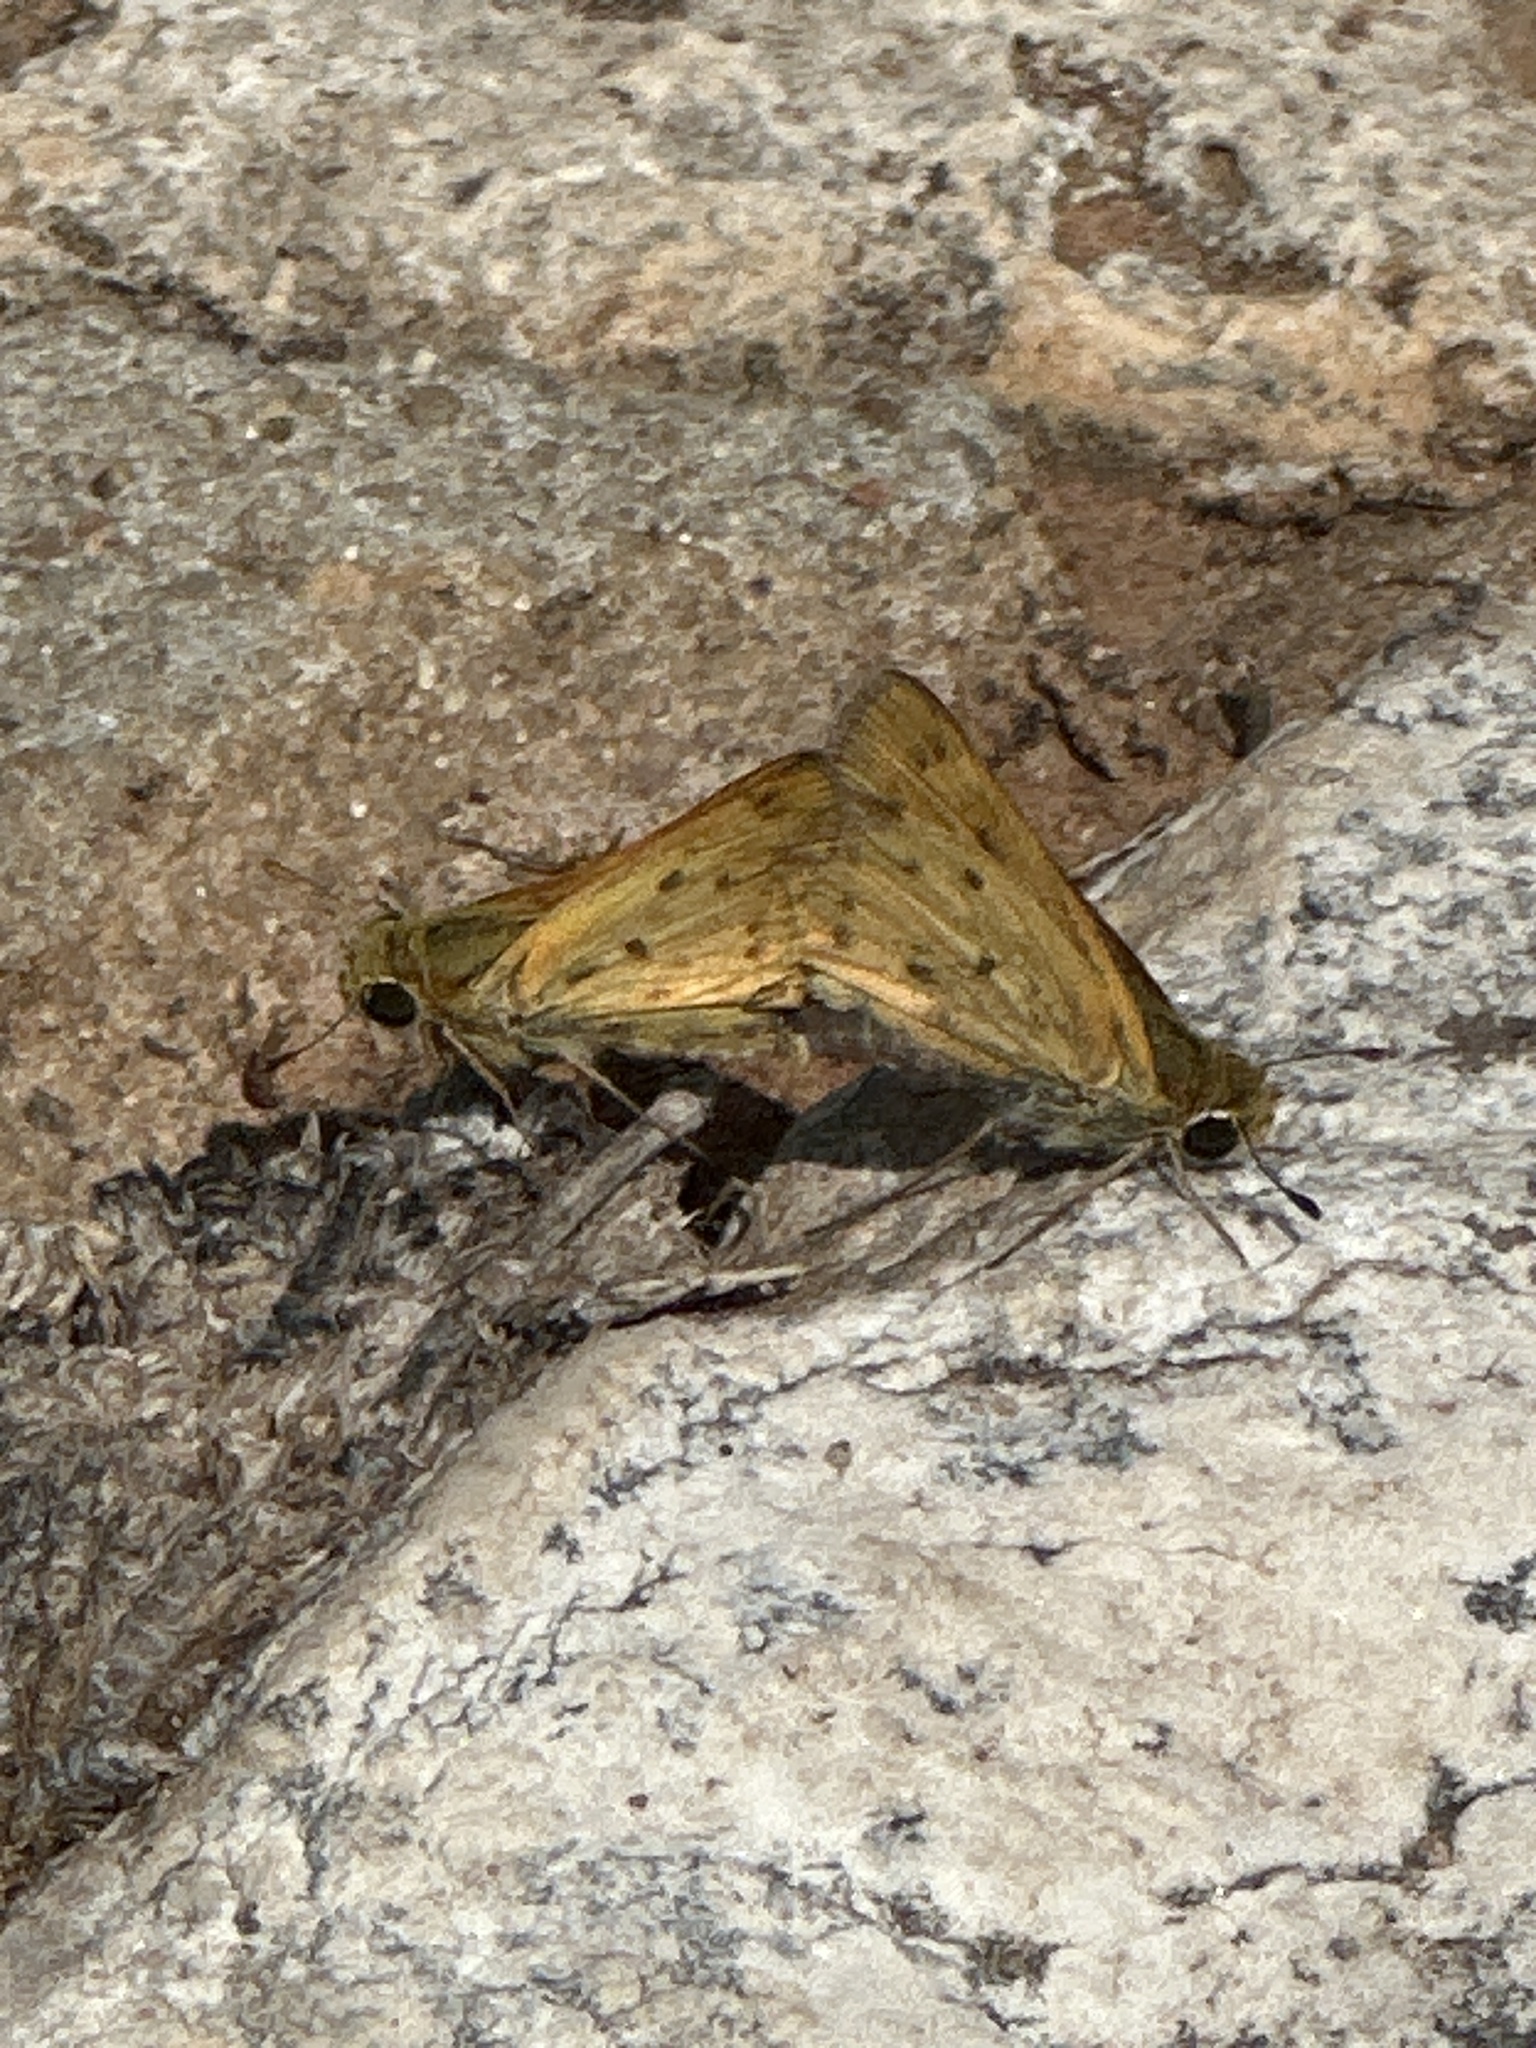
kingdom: Animalia
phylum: Arthropoda
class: Insecta
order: Lepidoptera
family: Hesperiidae
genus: Hylephila
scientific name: Hylephila phyleus
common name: Fiery skipper
